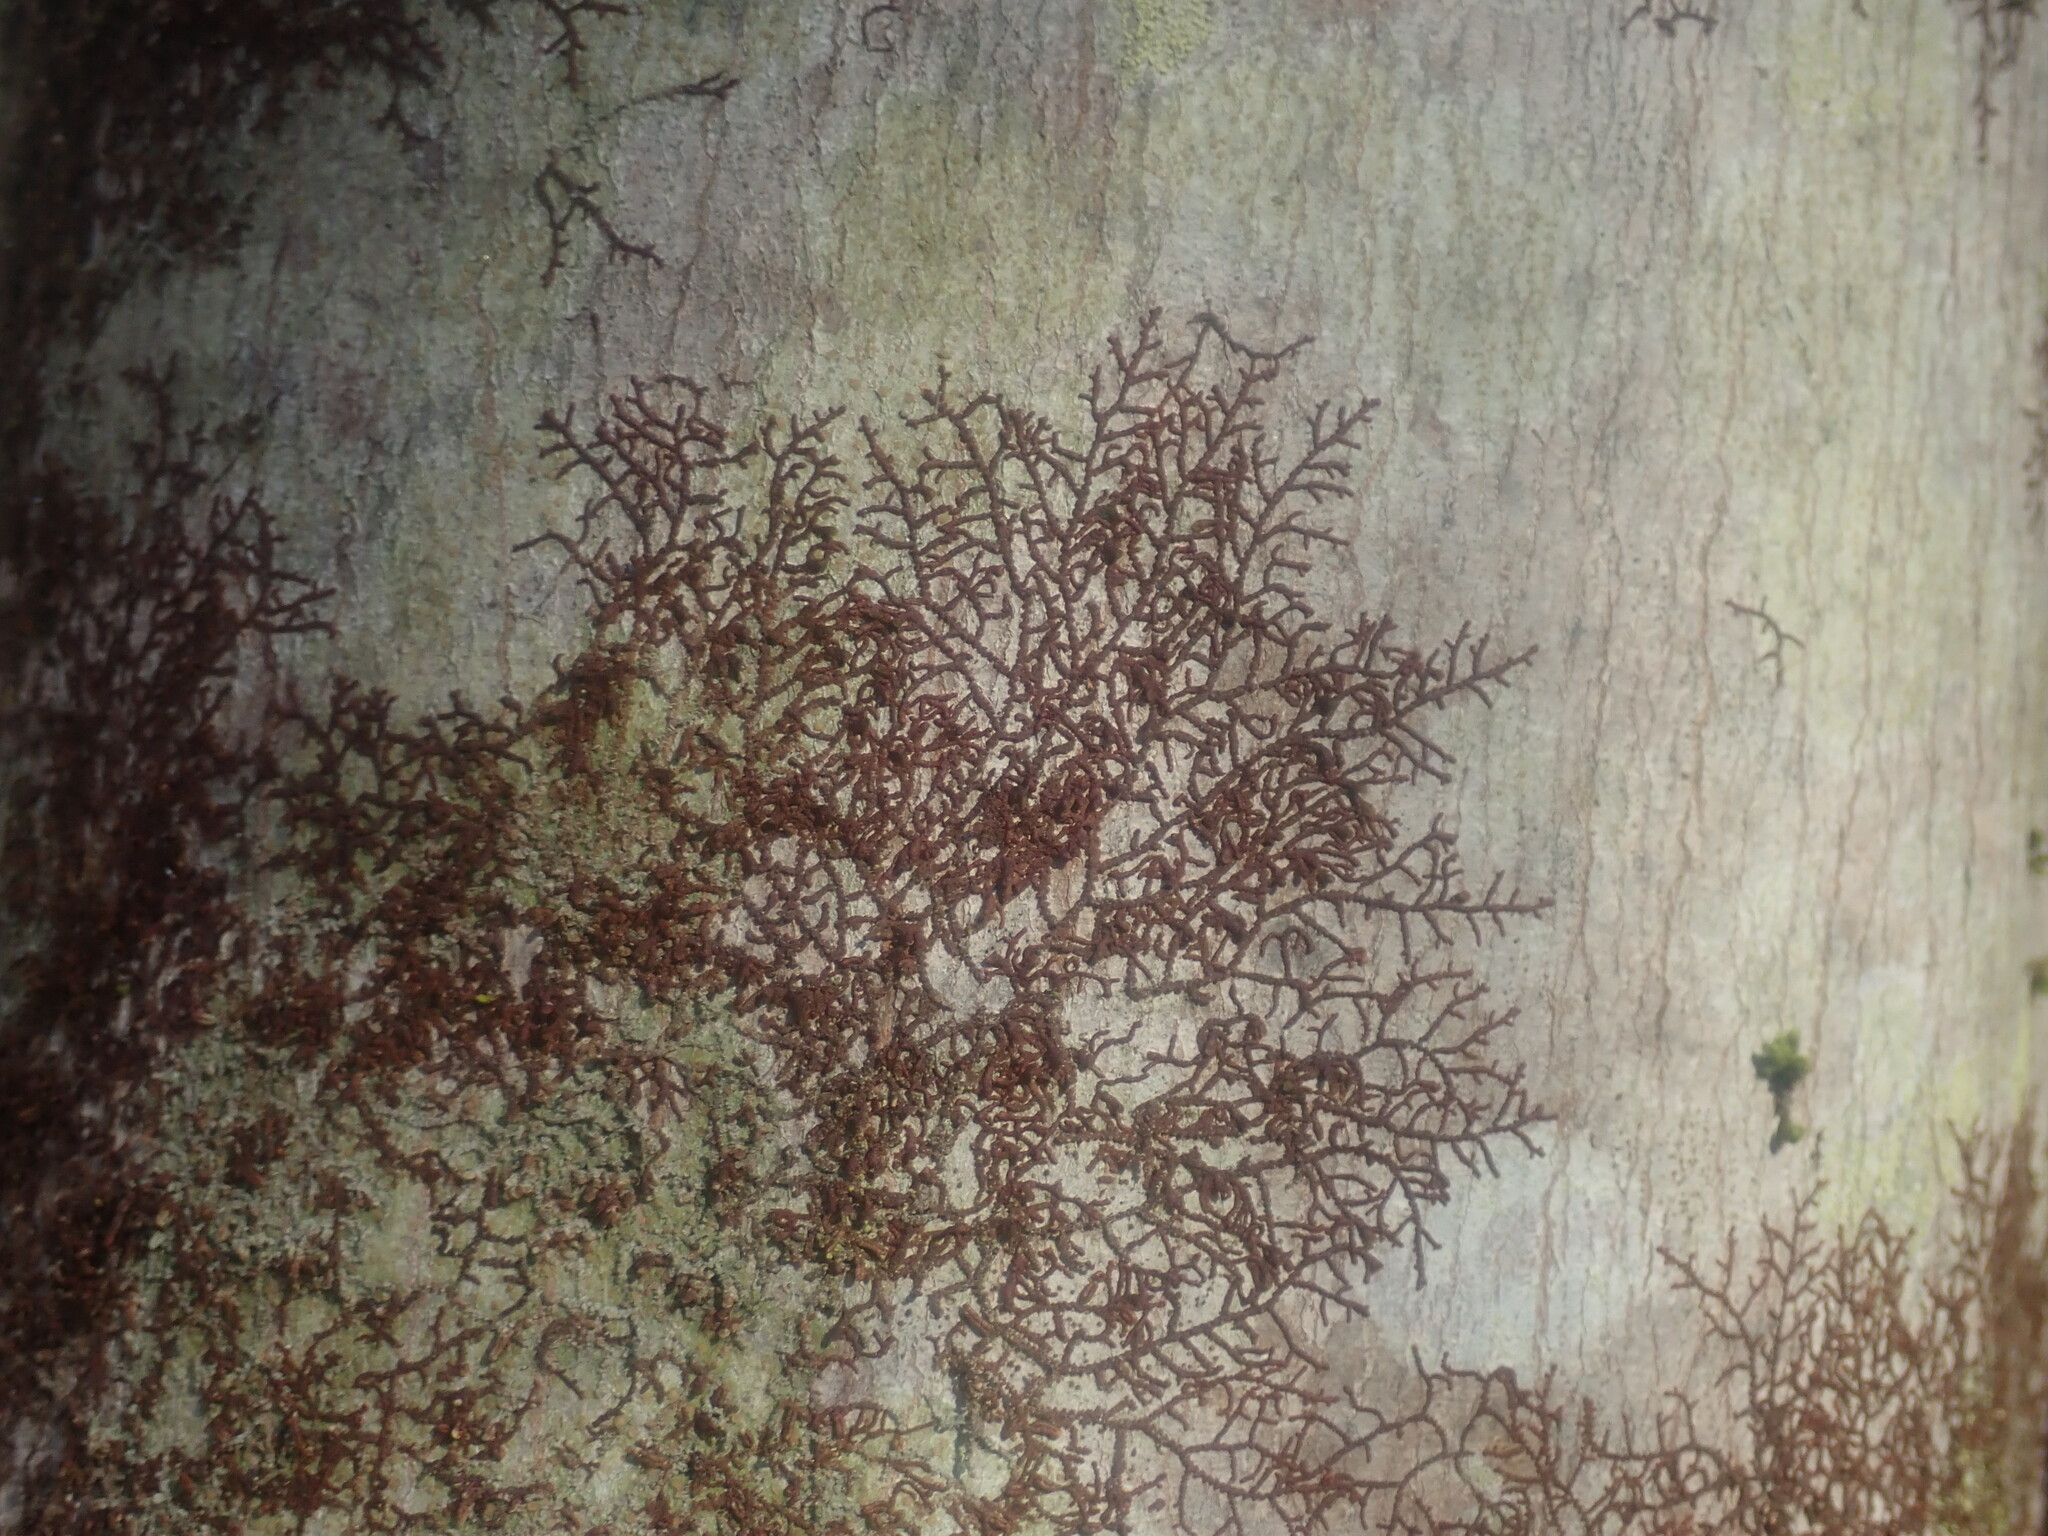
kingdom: Plantae
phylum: Marchantiophyta
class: Jungermanniopsida
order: Porellales
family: Frullaniaceae
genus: Frullania
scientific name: Frullania
